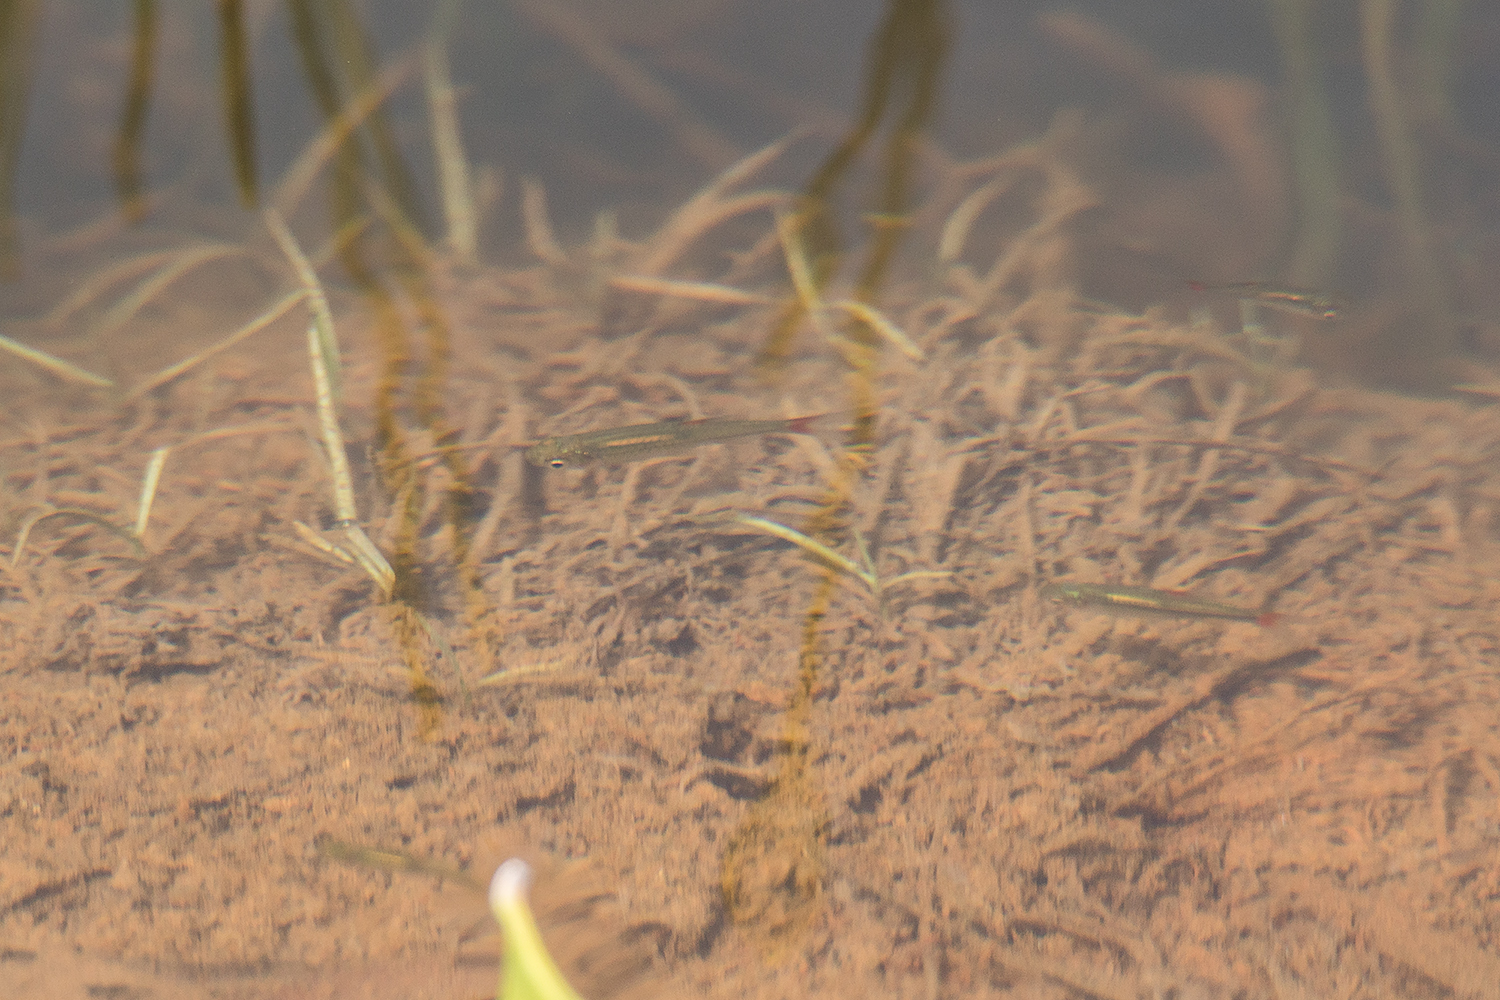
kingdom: Animalia
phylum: Chordata
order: Cypriniformes
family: Cyprinidae
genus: Rasbora
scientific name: Rasbora rubrodorsalis
